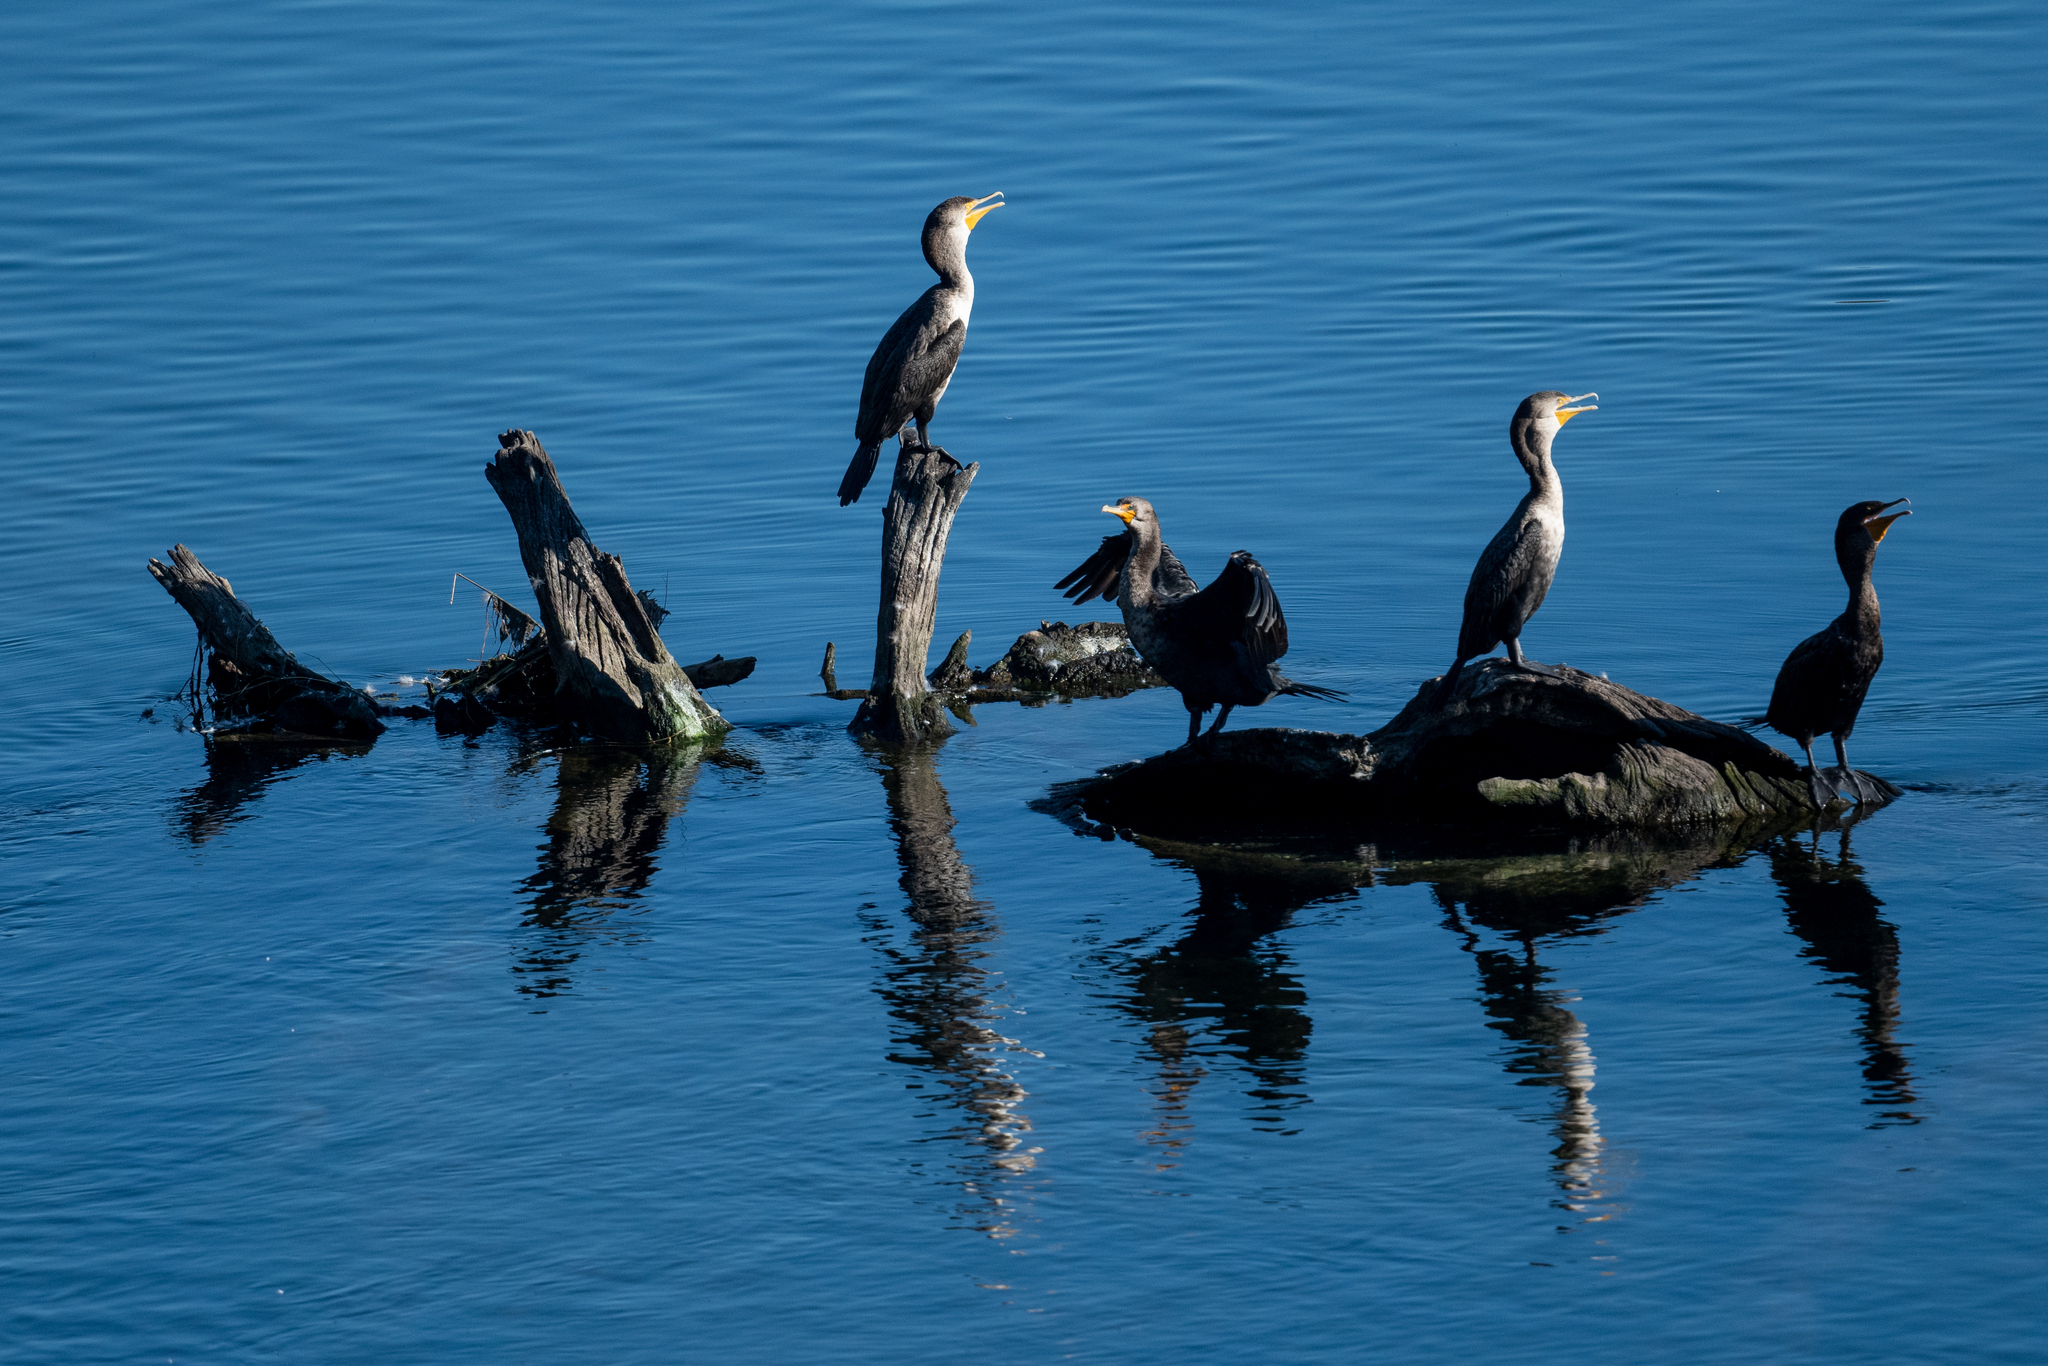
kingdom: Animalia
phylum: Chordata
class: Aves
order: Suliformes
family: Phalacrocoracidae
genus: Phalacrocorax
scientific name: Phalacrocorax auritus
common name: Double-crested cormorant
